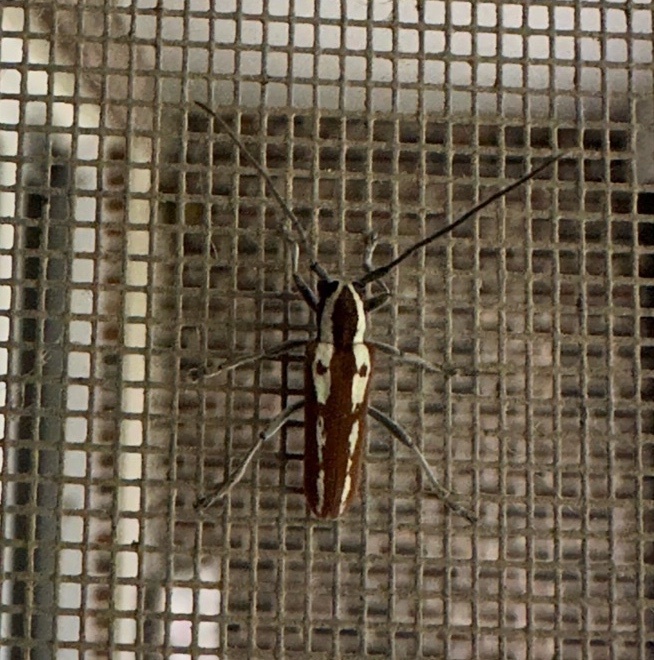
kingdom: Animalia
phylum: Arthropoda
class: Insecta
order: Coleoptera
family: Cerambycidae
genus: Saperda
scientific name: Saperda candida
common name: Round-headed borer
